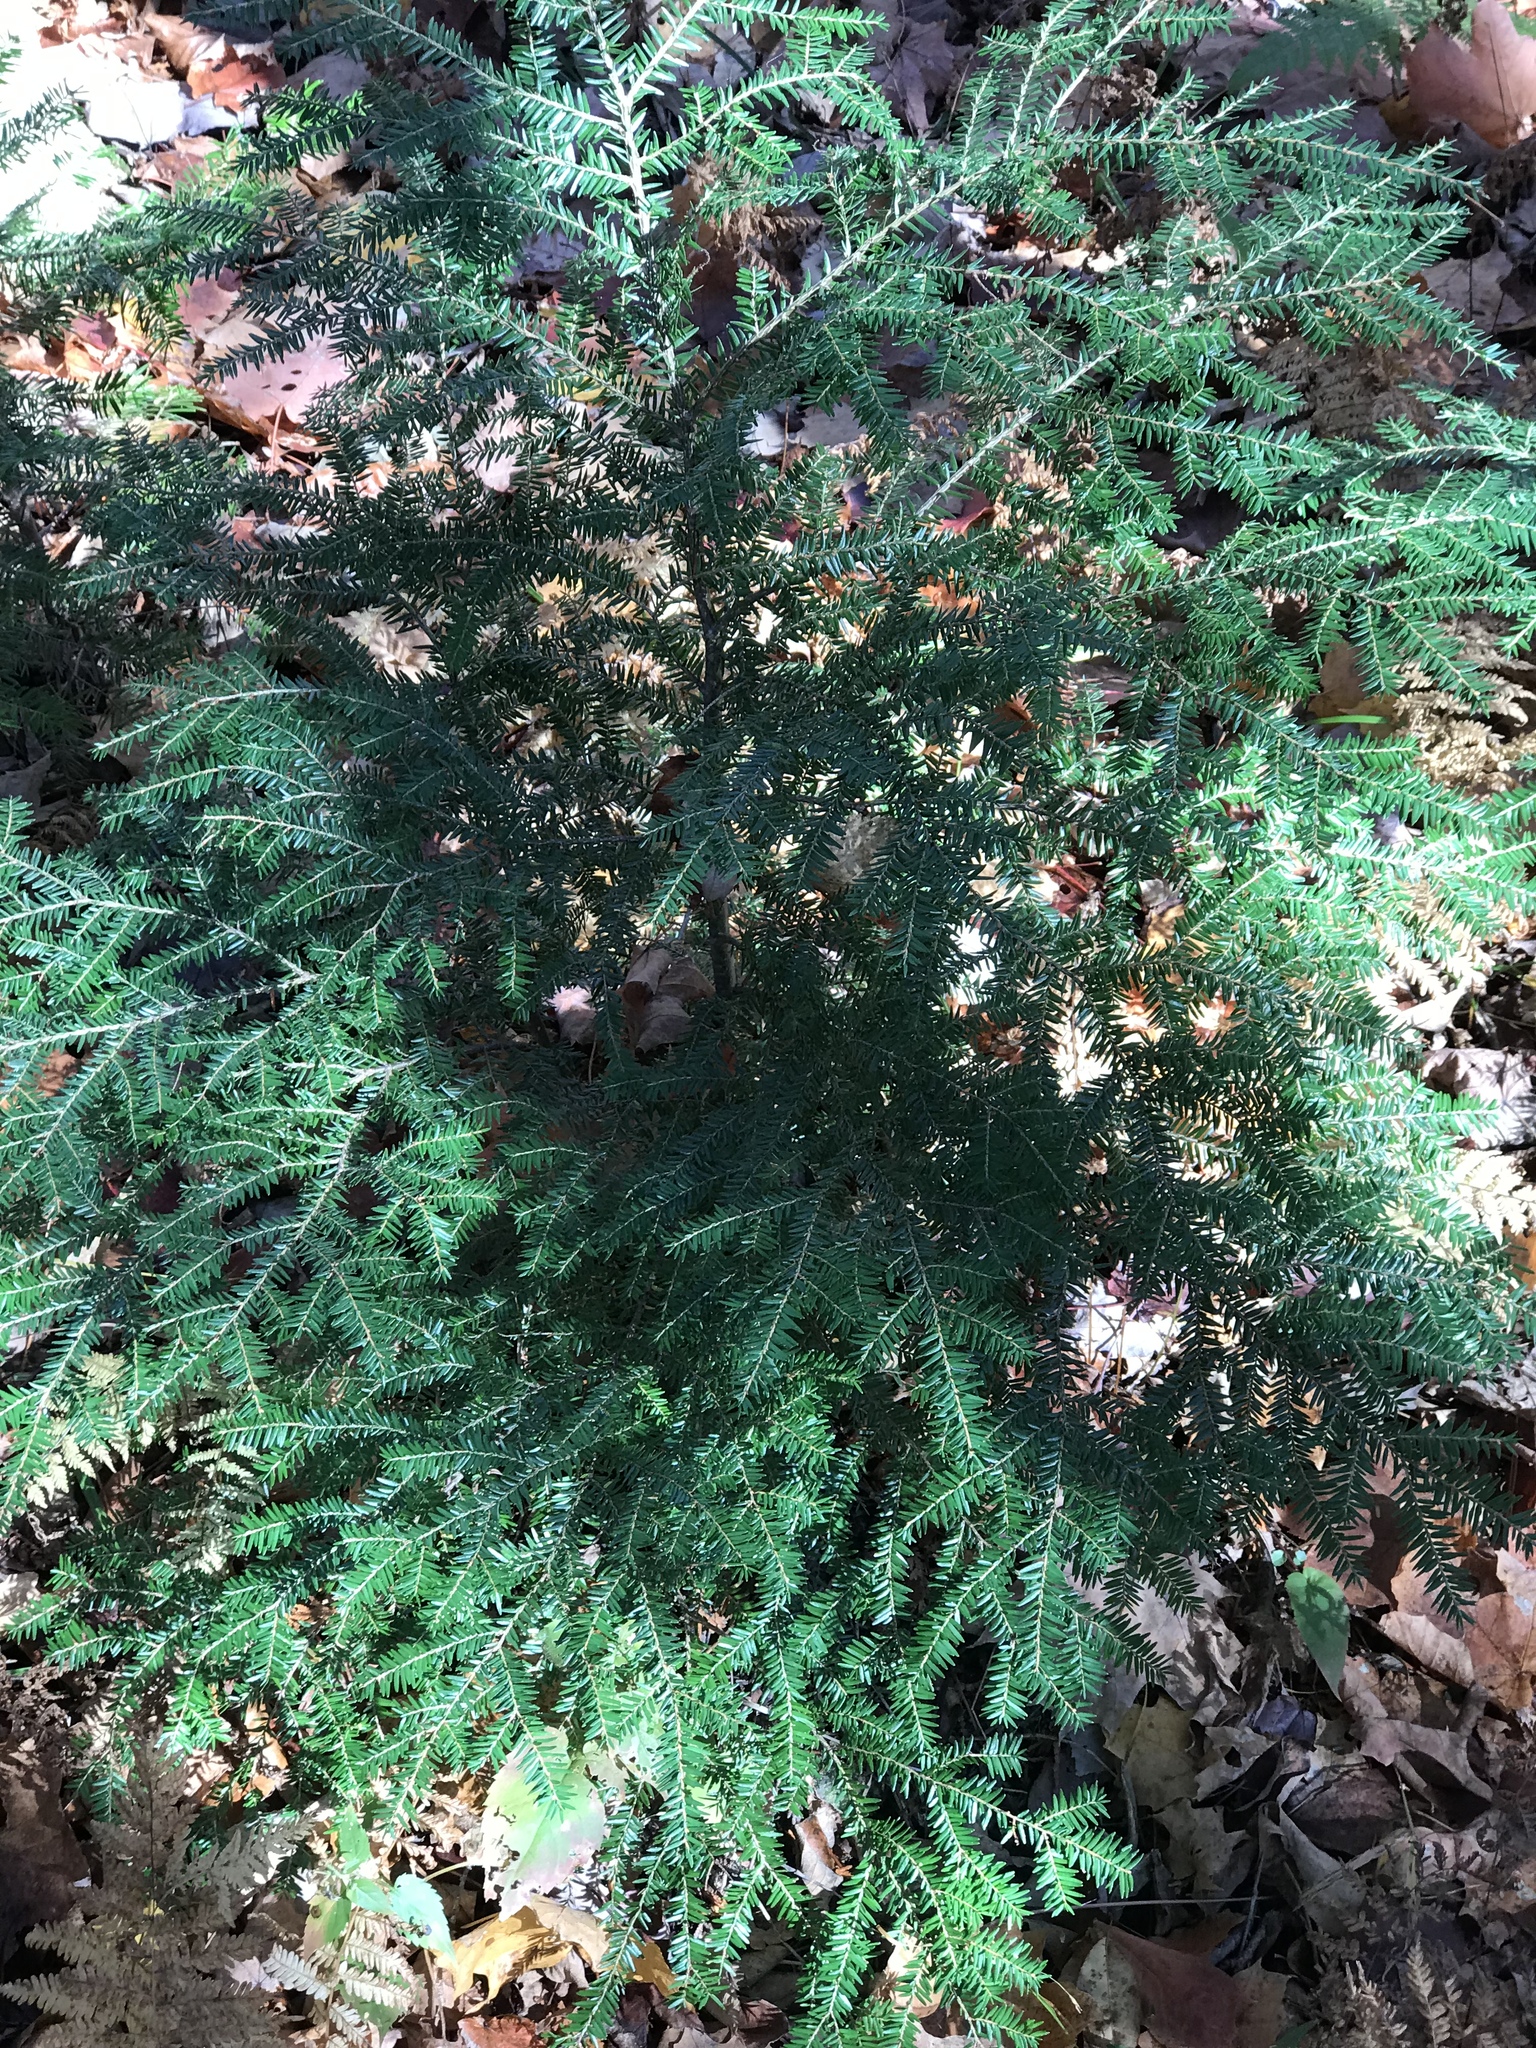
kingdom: Plantae
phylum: Tracheophyta
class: Pinopsida
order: Pinales
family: Pinaceae
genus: Tsuga
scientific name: Tsuga canadensis
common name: Eastern hemlock
